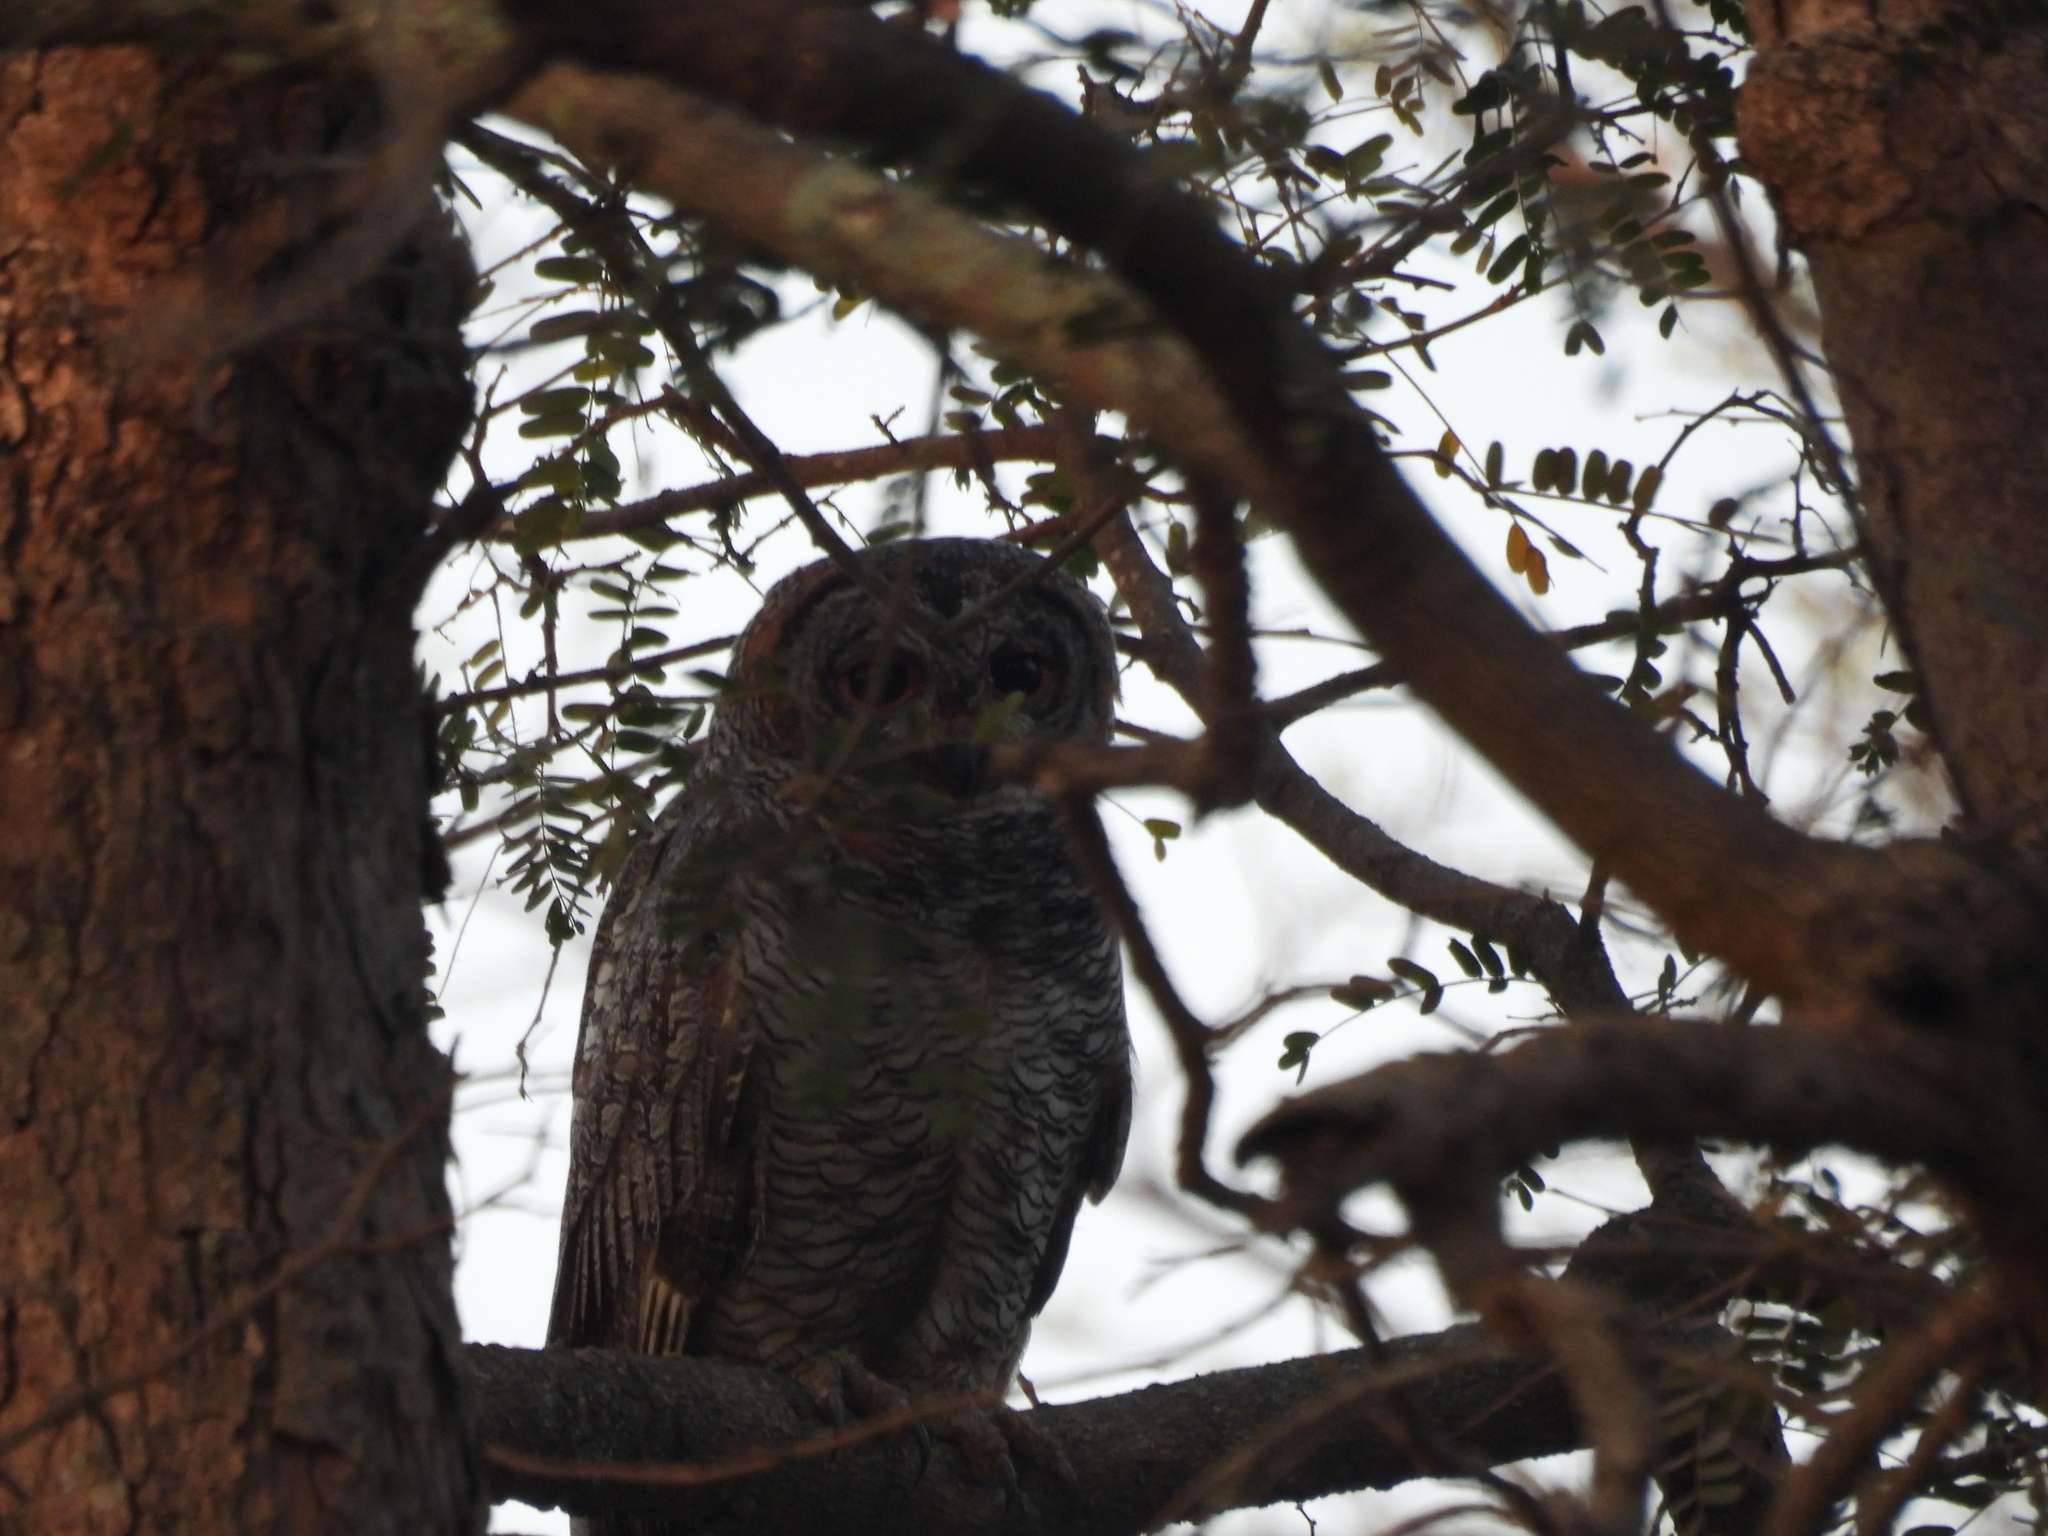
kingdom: Animalia
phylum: Chordata
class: Aves
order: Strigiformes
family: Strigidae
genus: Strix
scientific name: Strix ocellata
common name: Mottled wood owl
